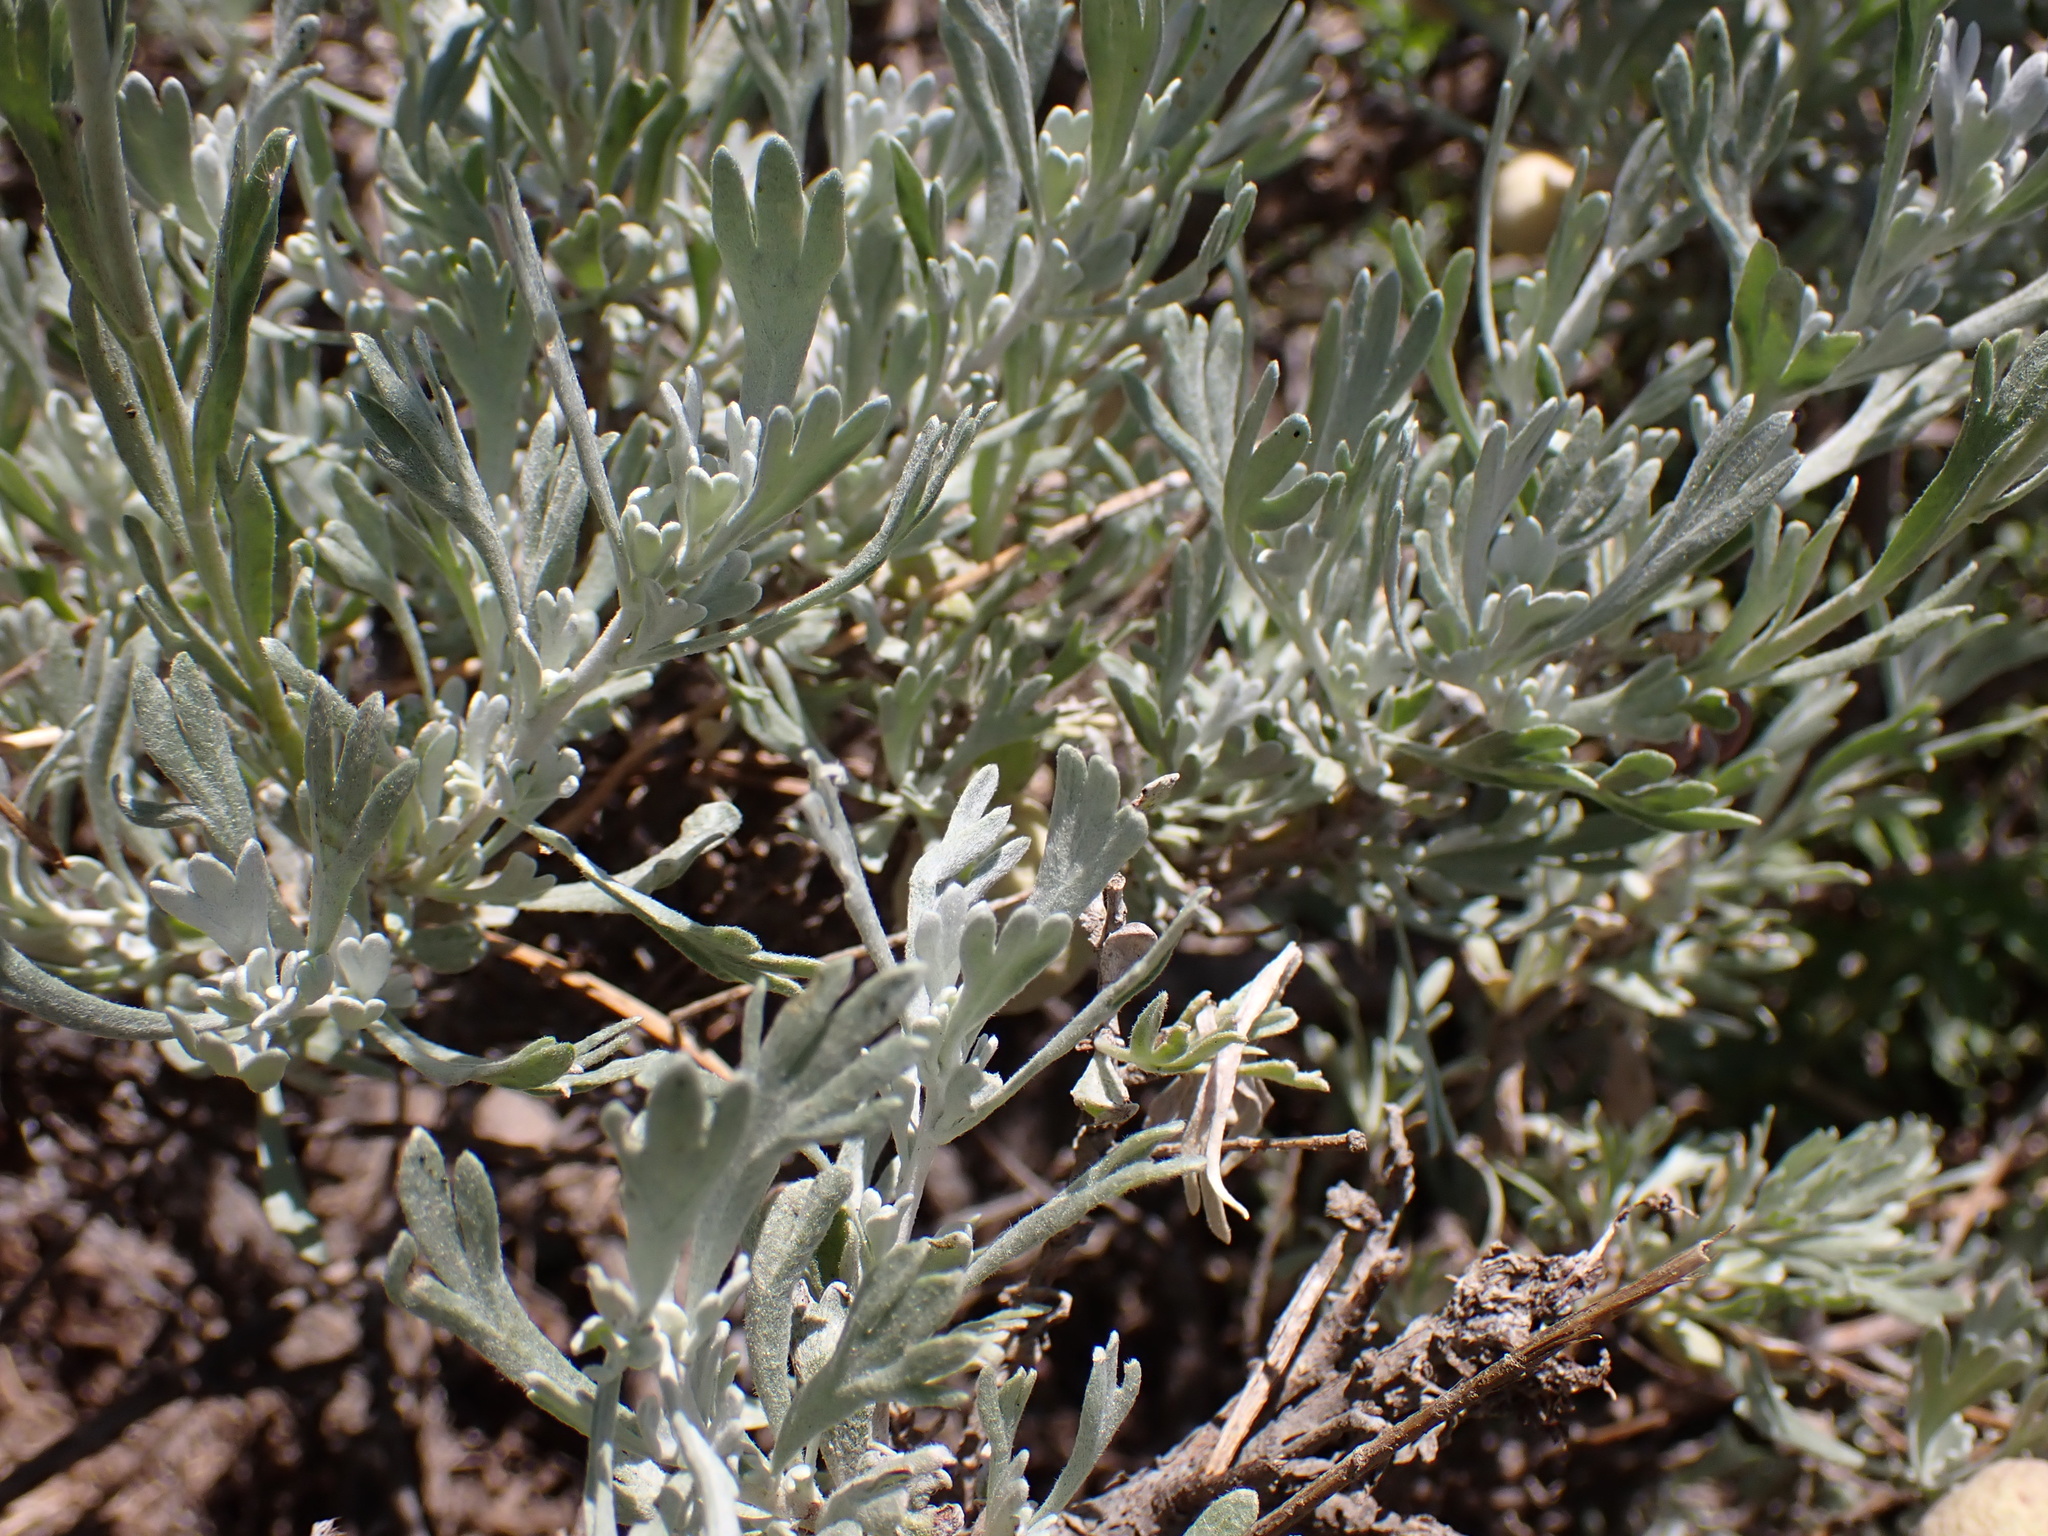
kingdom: Plantae
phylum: Tracheophyta
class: Magnoliopsida
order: Asterales
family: Asteraceae
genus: Artemisia
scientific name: Artemisia tridentata
